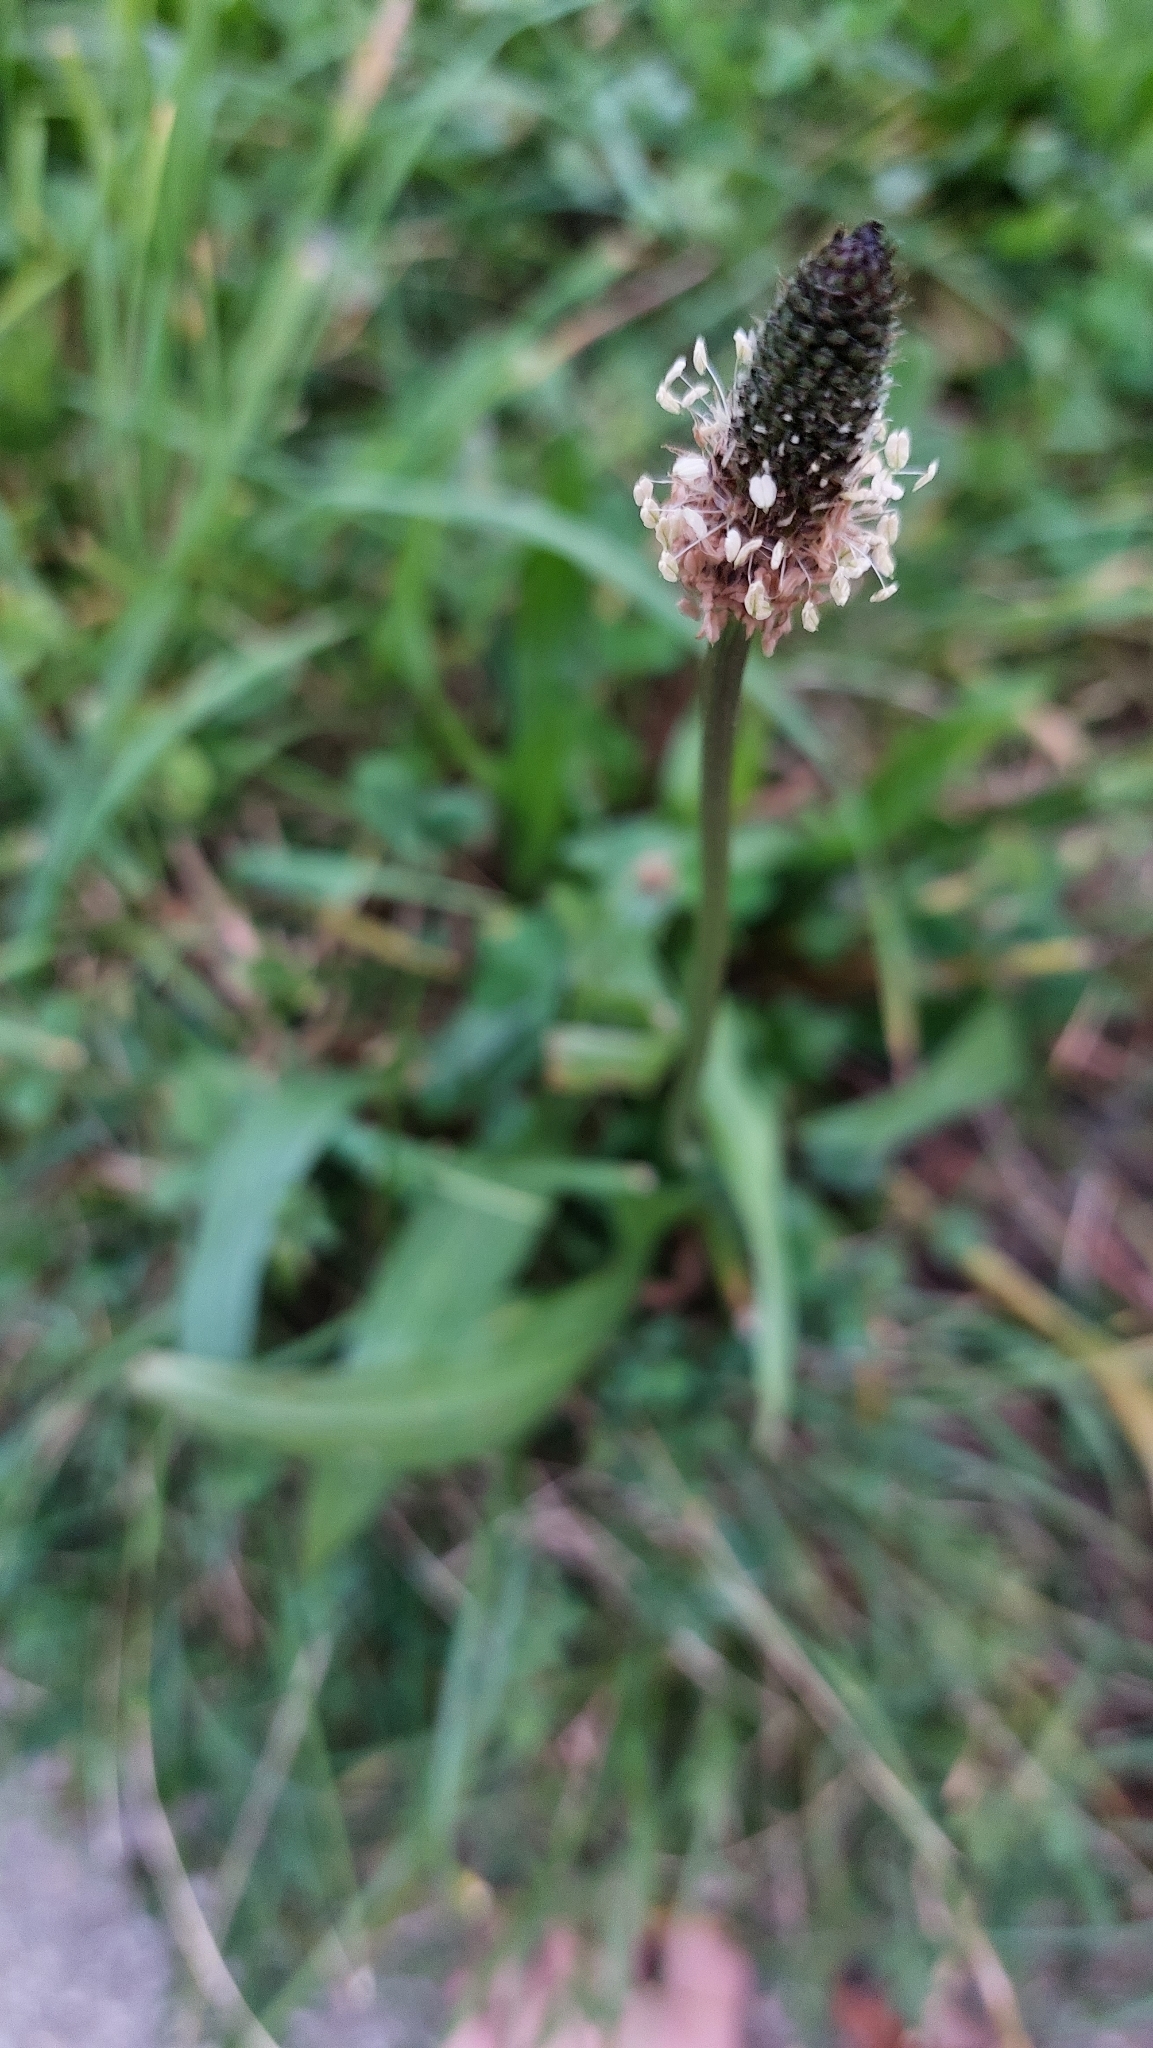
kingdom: Plantae
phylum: Tracheophyta
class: Magnoliopsida
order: Lamiales
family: Plantaginaceae
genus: Plantago
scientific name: Plantago lanceolata
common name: Ribwort plantain
